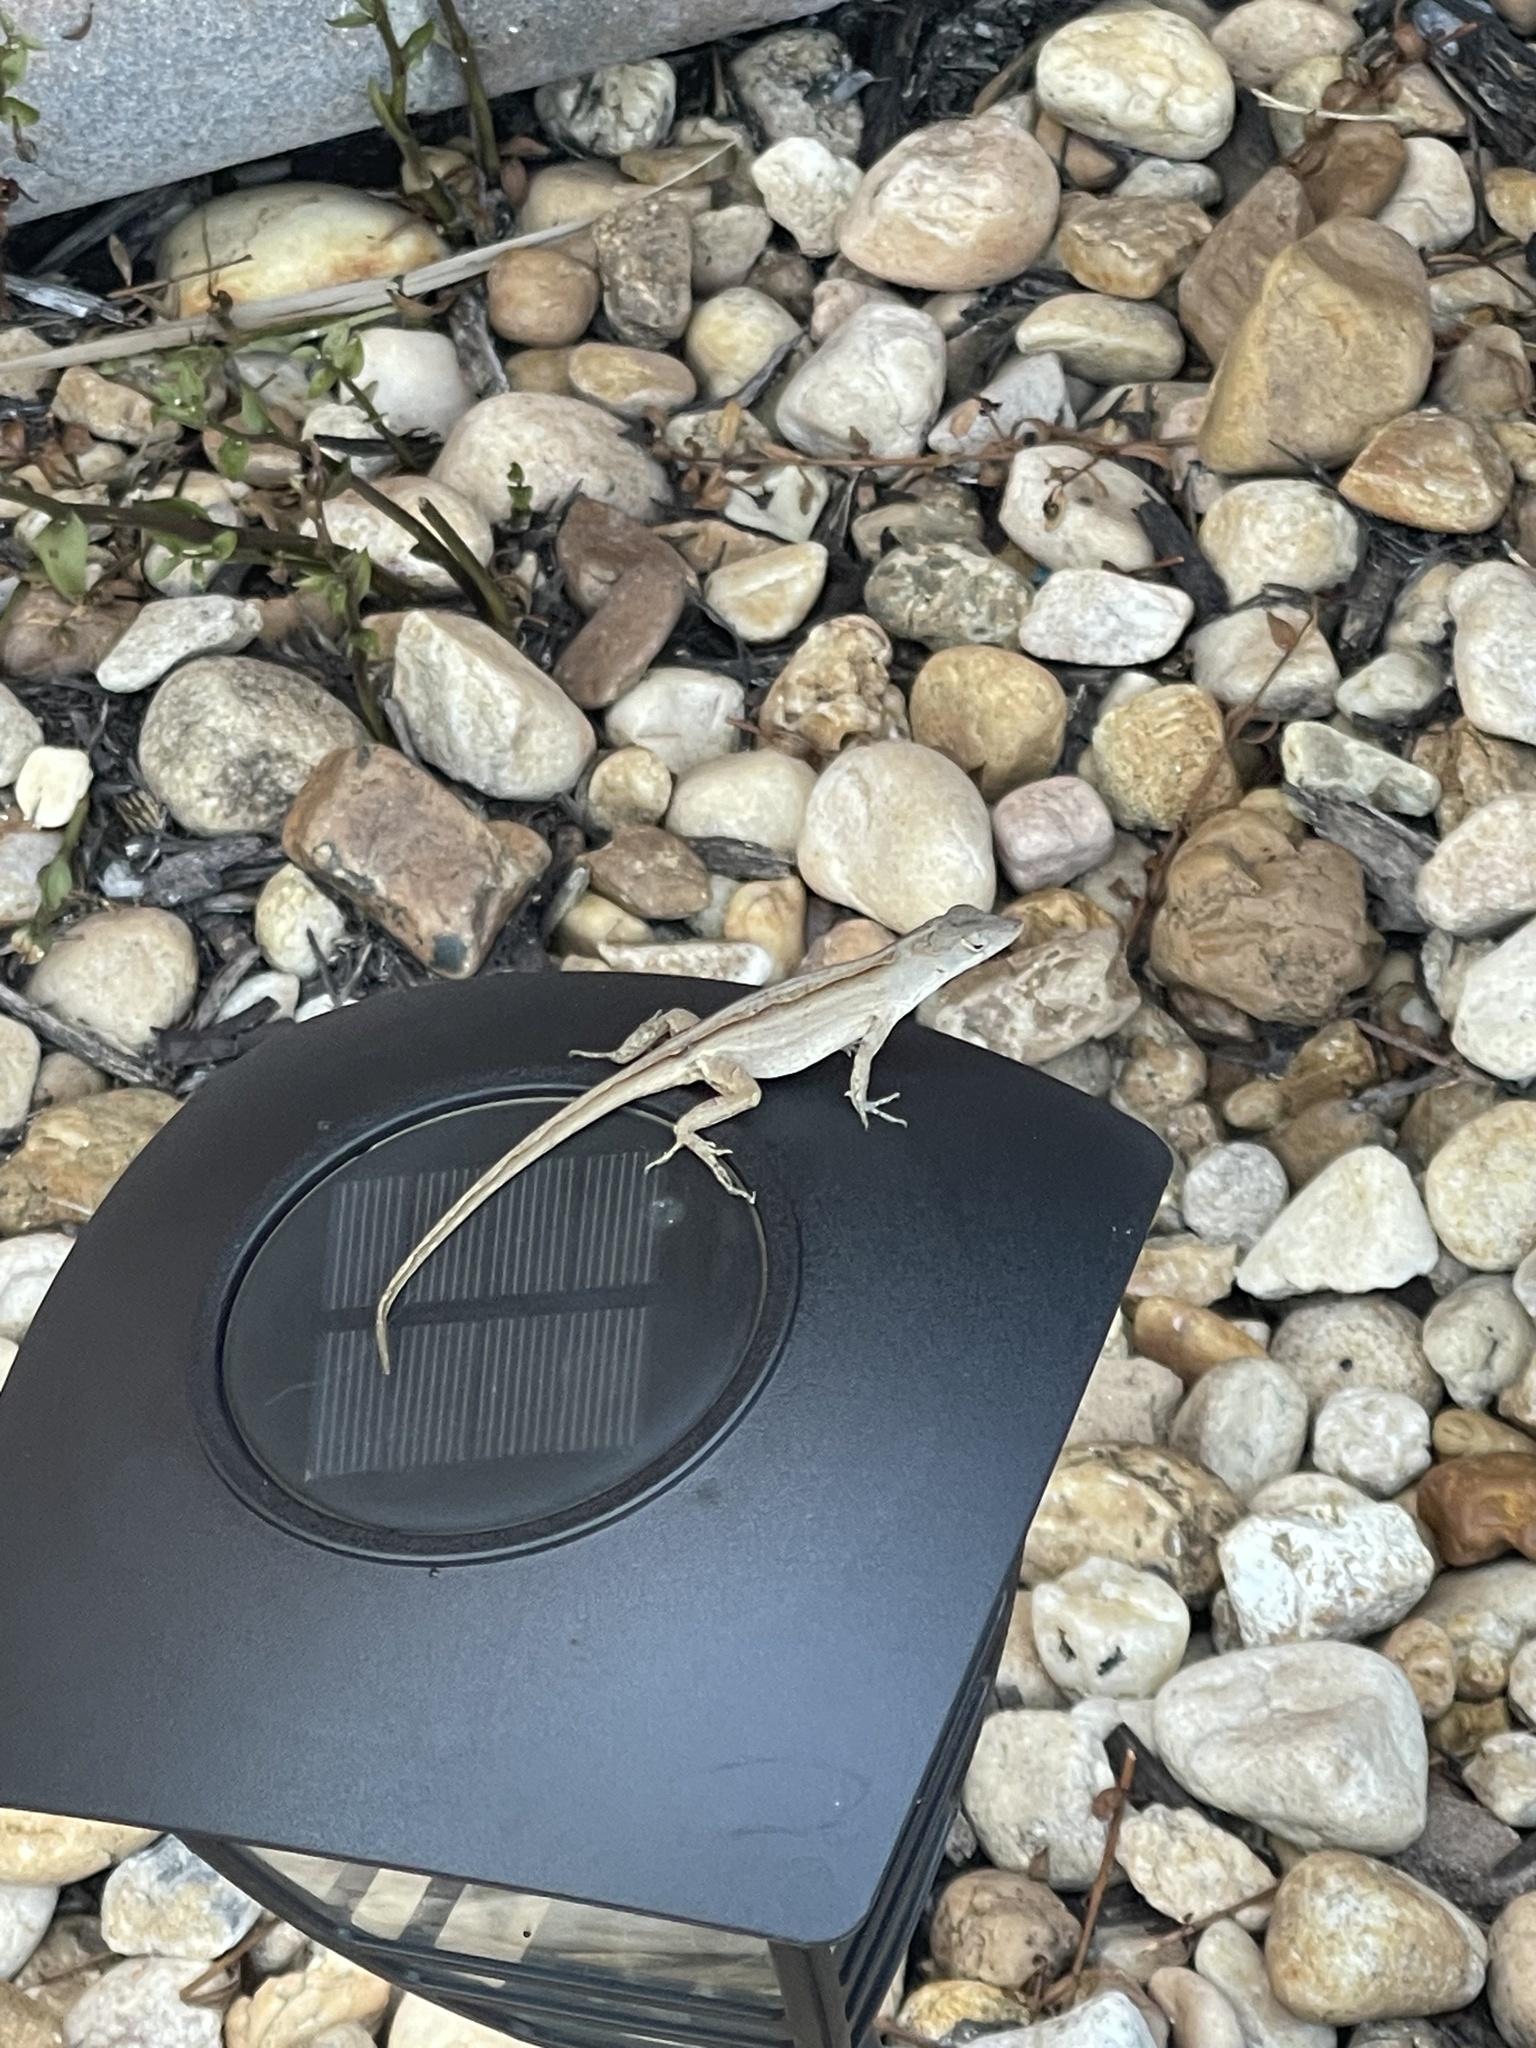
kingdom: Animalia
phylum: Chordata
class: Squamata
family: Dactyloidae
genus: Anolis
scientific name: Anolis sagrei
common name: Brown anole
